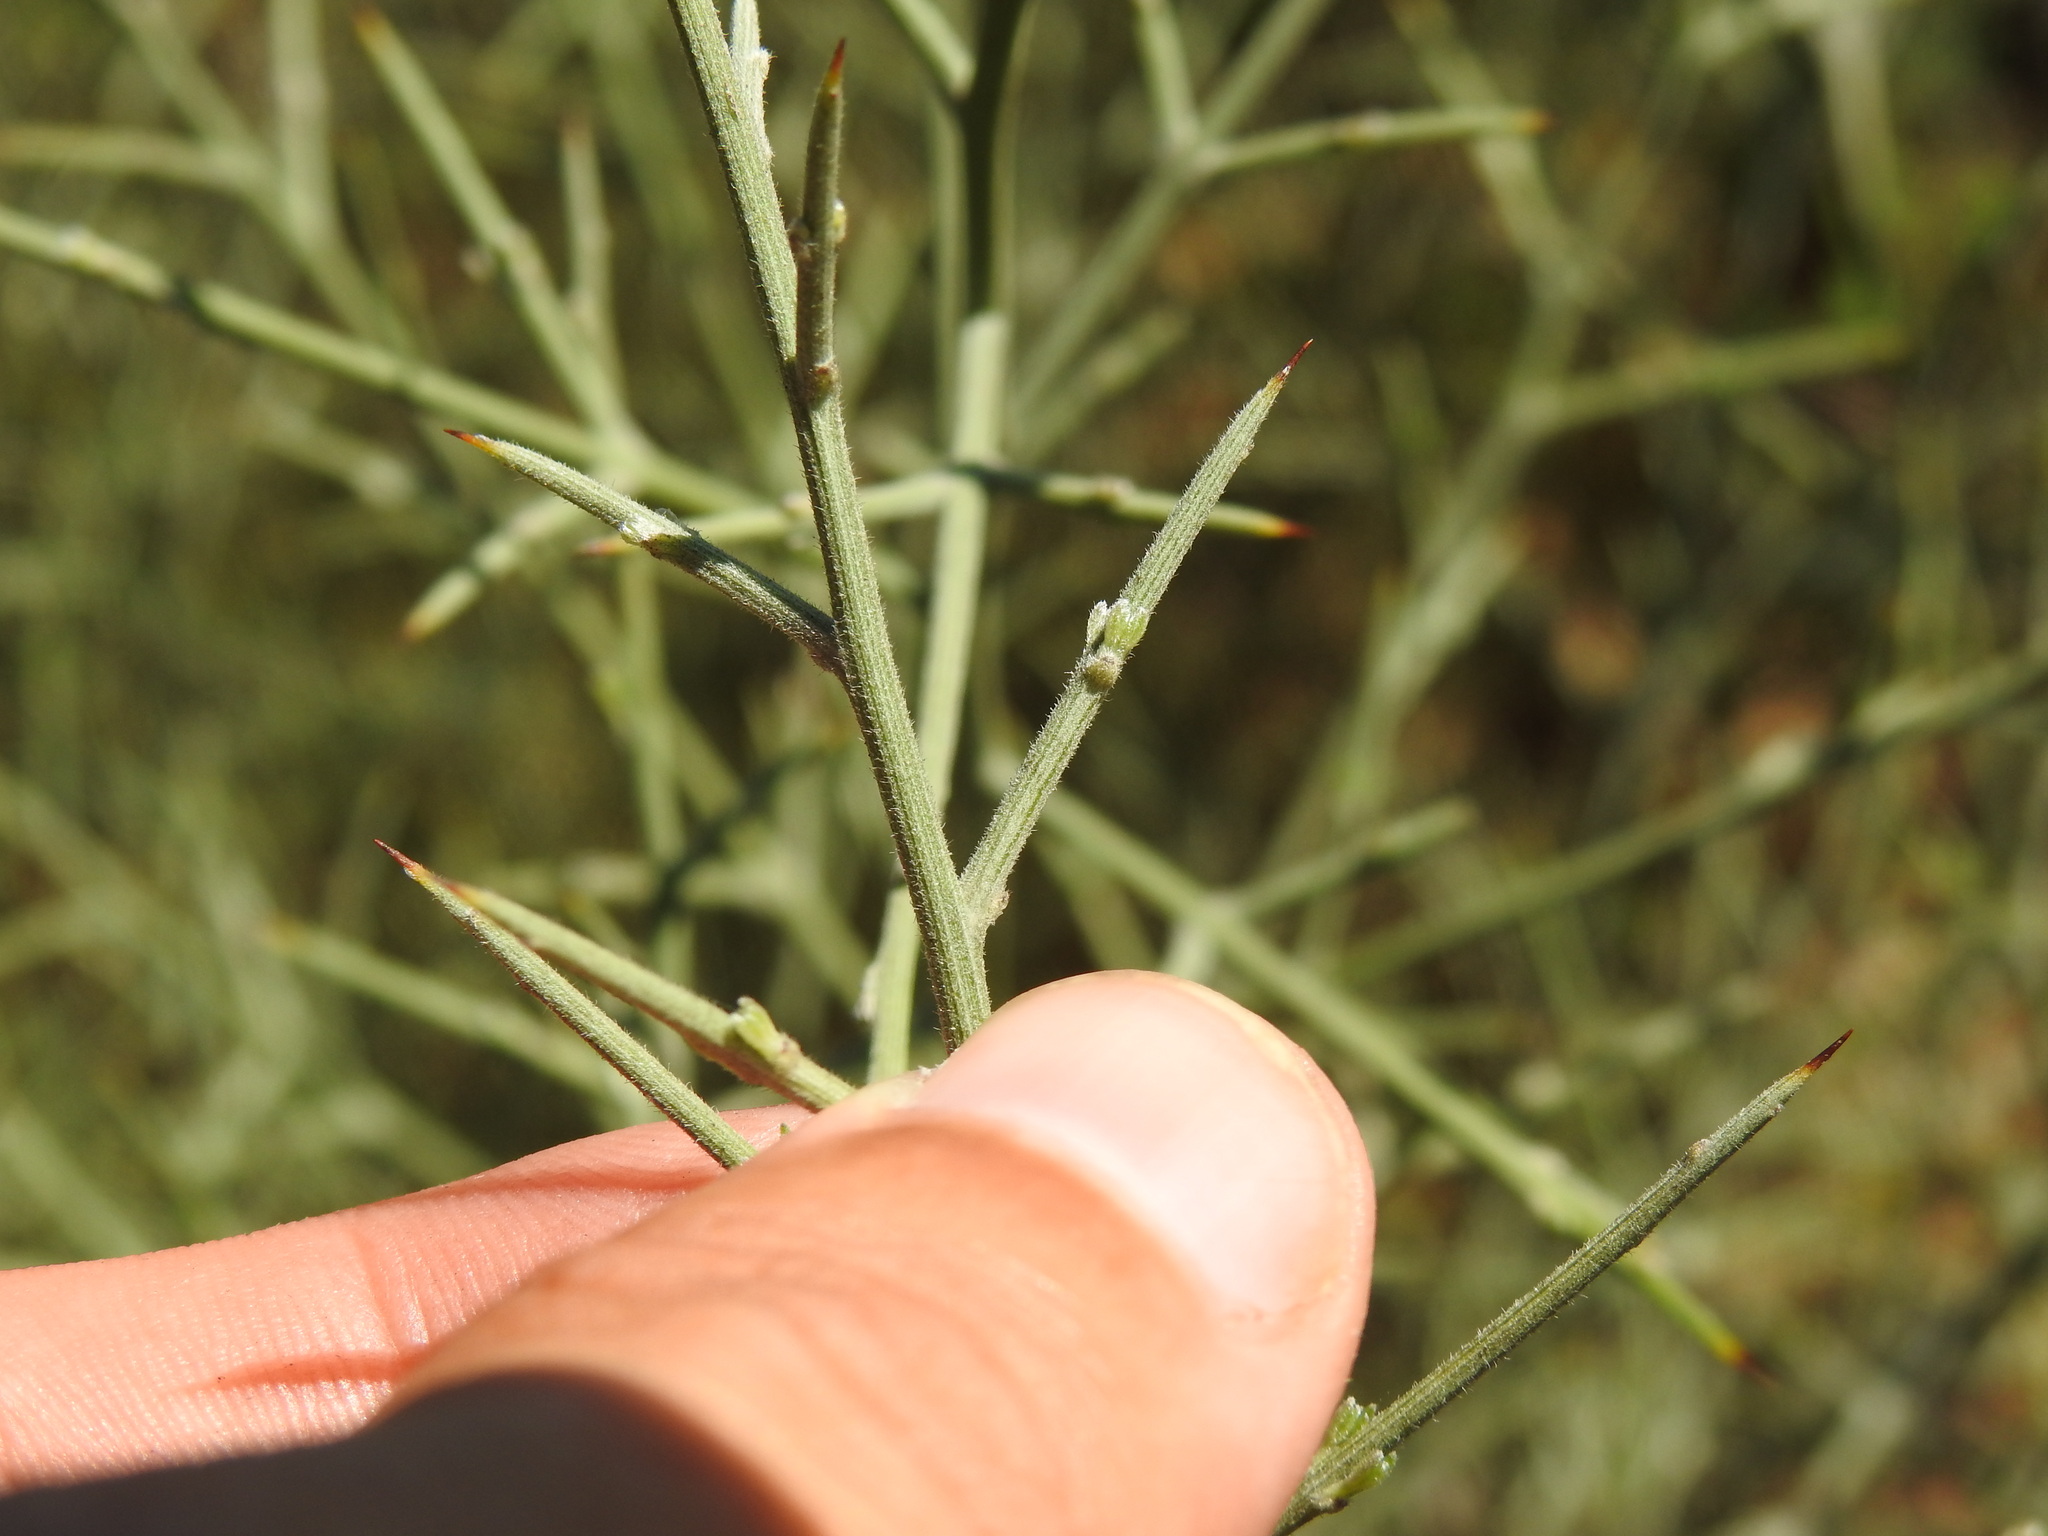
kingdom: Plantae
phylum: Tracheophyta
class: Magnoliopsida
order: Fabales
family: Fabaceae
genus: Calicotome
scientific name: Calicotome villosa
